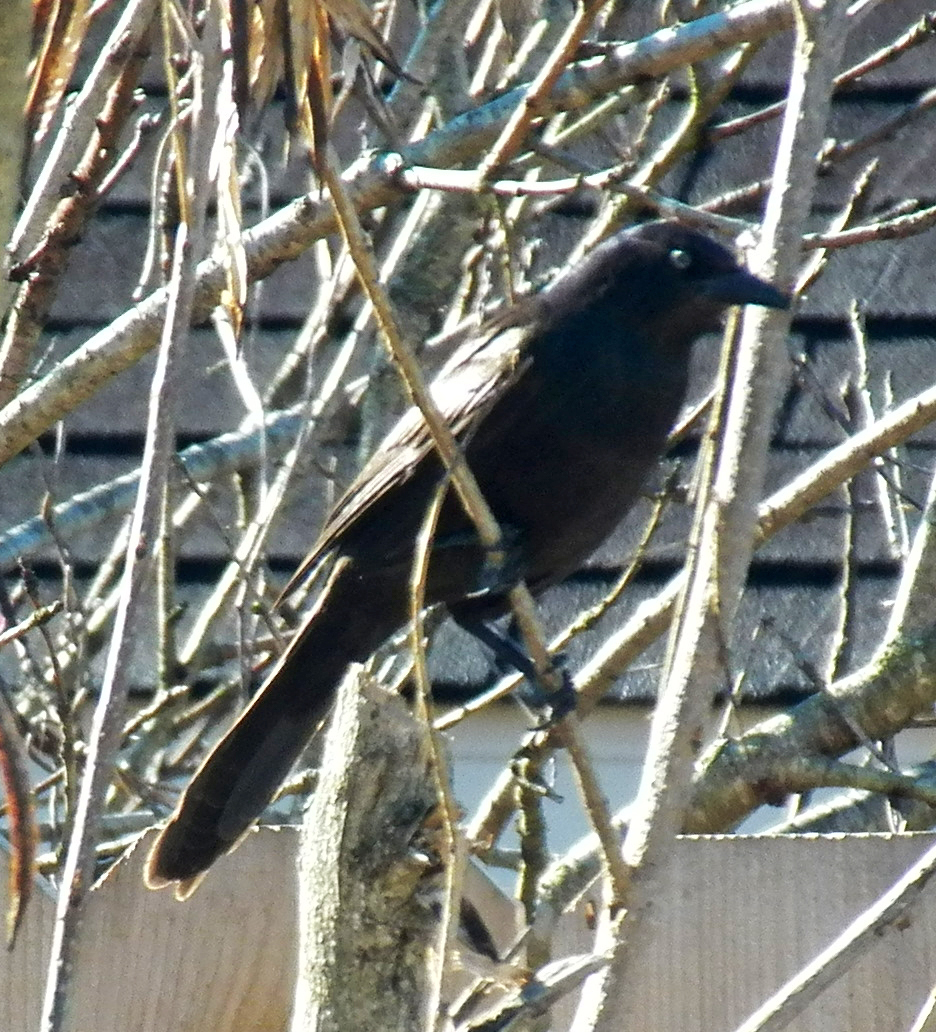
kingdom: Animalia
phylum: Chordata
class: Aves
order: Passeriformes
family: Icteridae
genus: Quiscalus
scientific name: Quiscalus quiscula
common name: Common grackle
